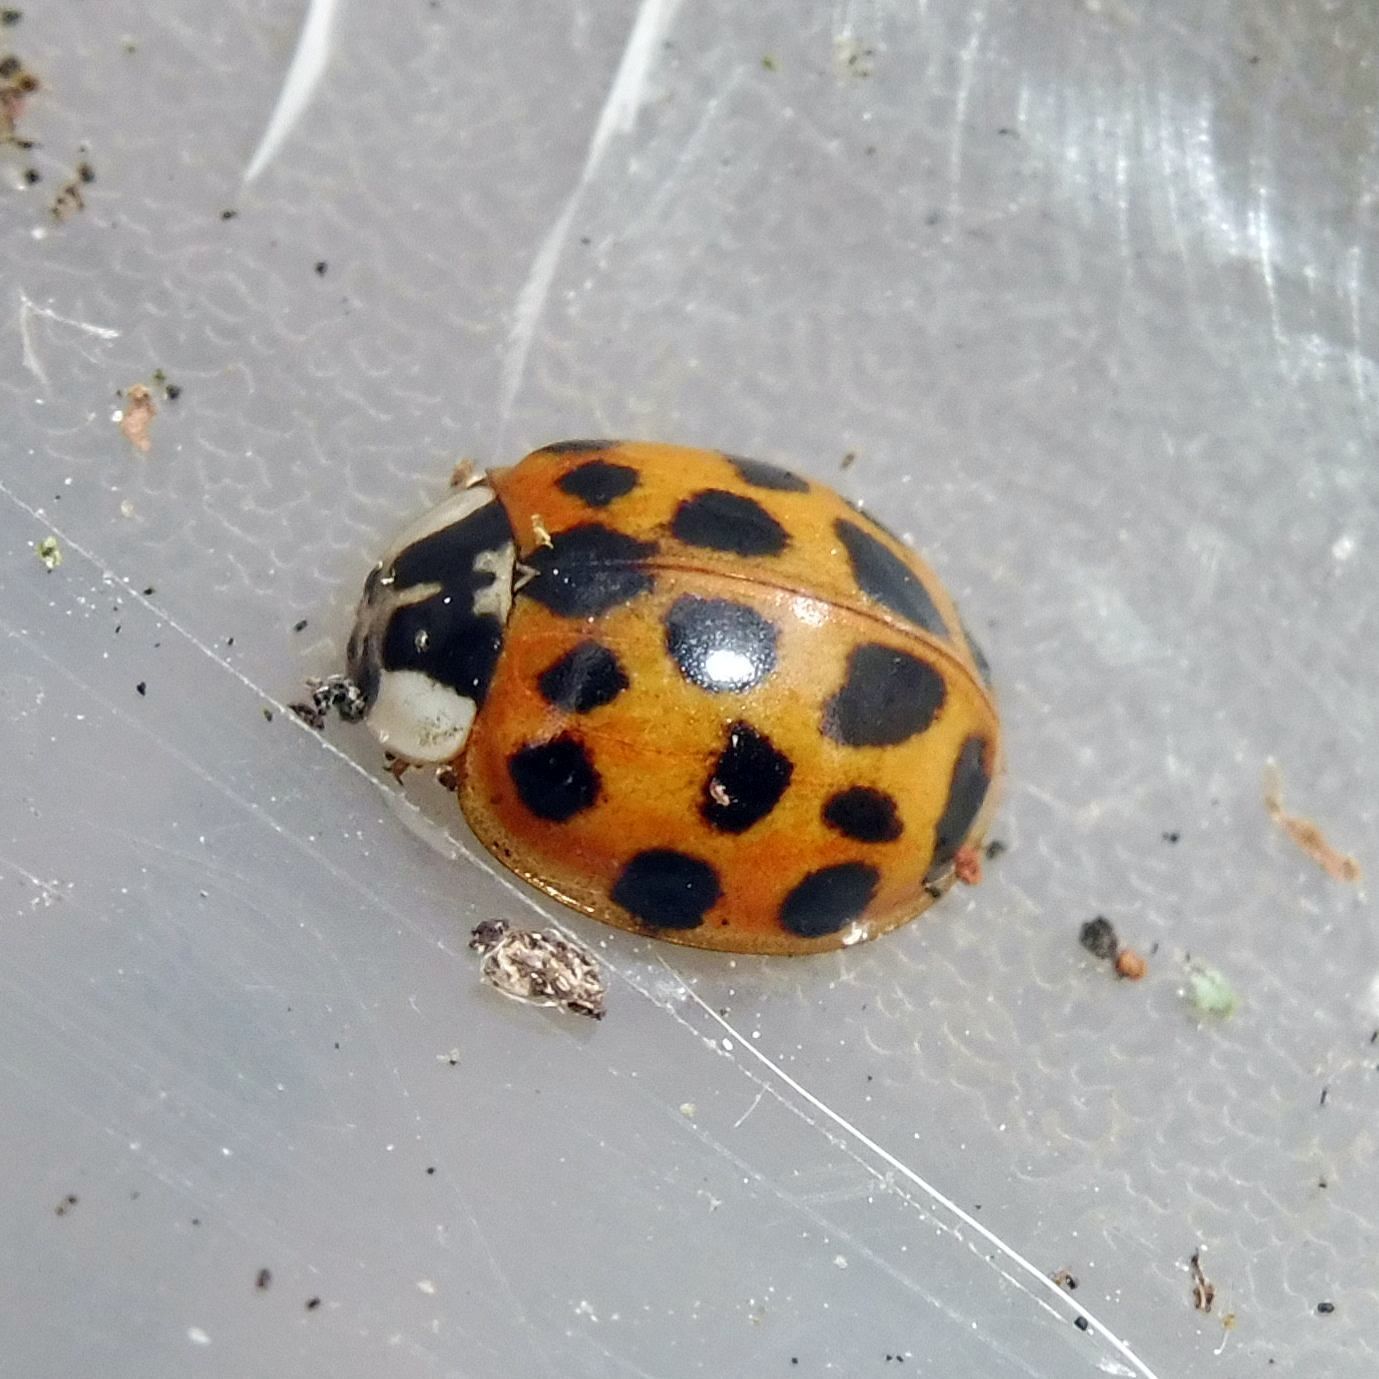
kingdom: Animalia
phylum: Arthropoda
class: Insecta
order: Coleoptera
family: Coccinellidae
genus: Harmonia
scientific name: Harmonia axyridis
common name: Harlequin ladybird
